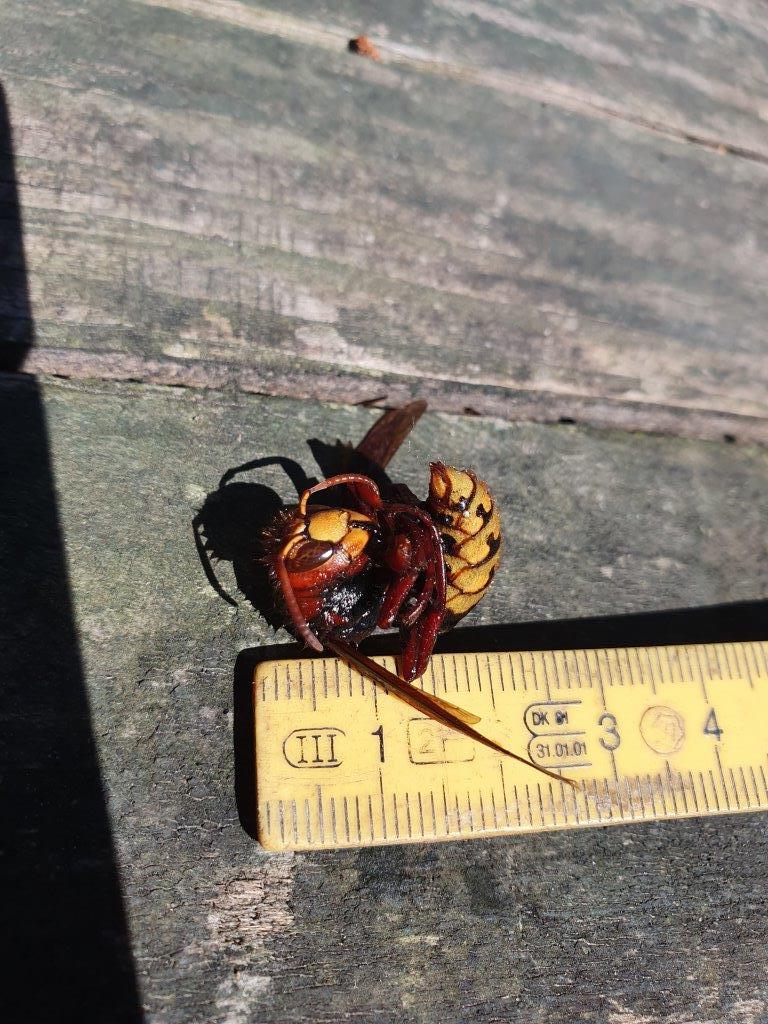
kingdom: Animalia
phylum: Arthropoda
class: Insecta
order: Hymenoptera
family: Vespidae
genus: Vespa
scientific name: Vespa crabro
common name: Hornet
